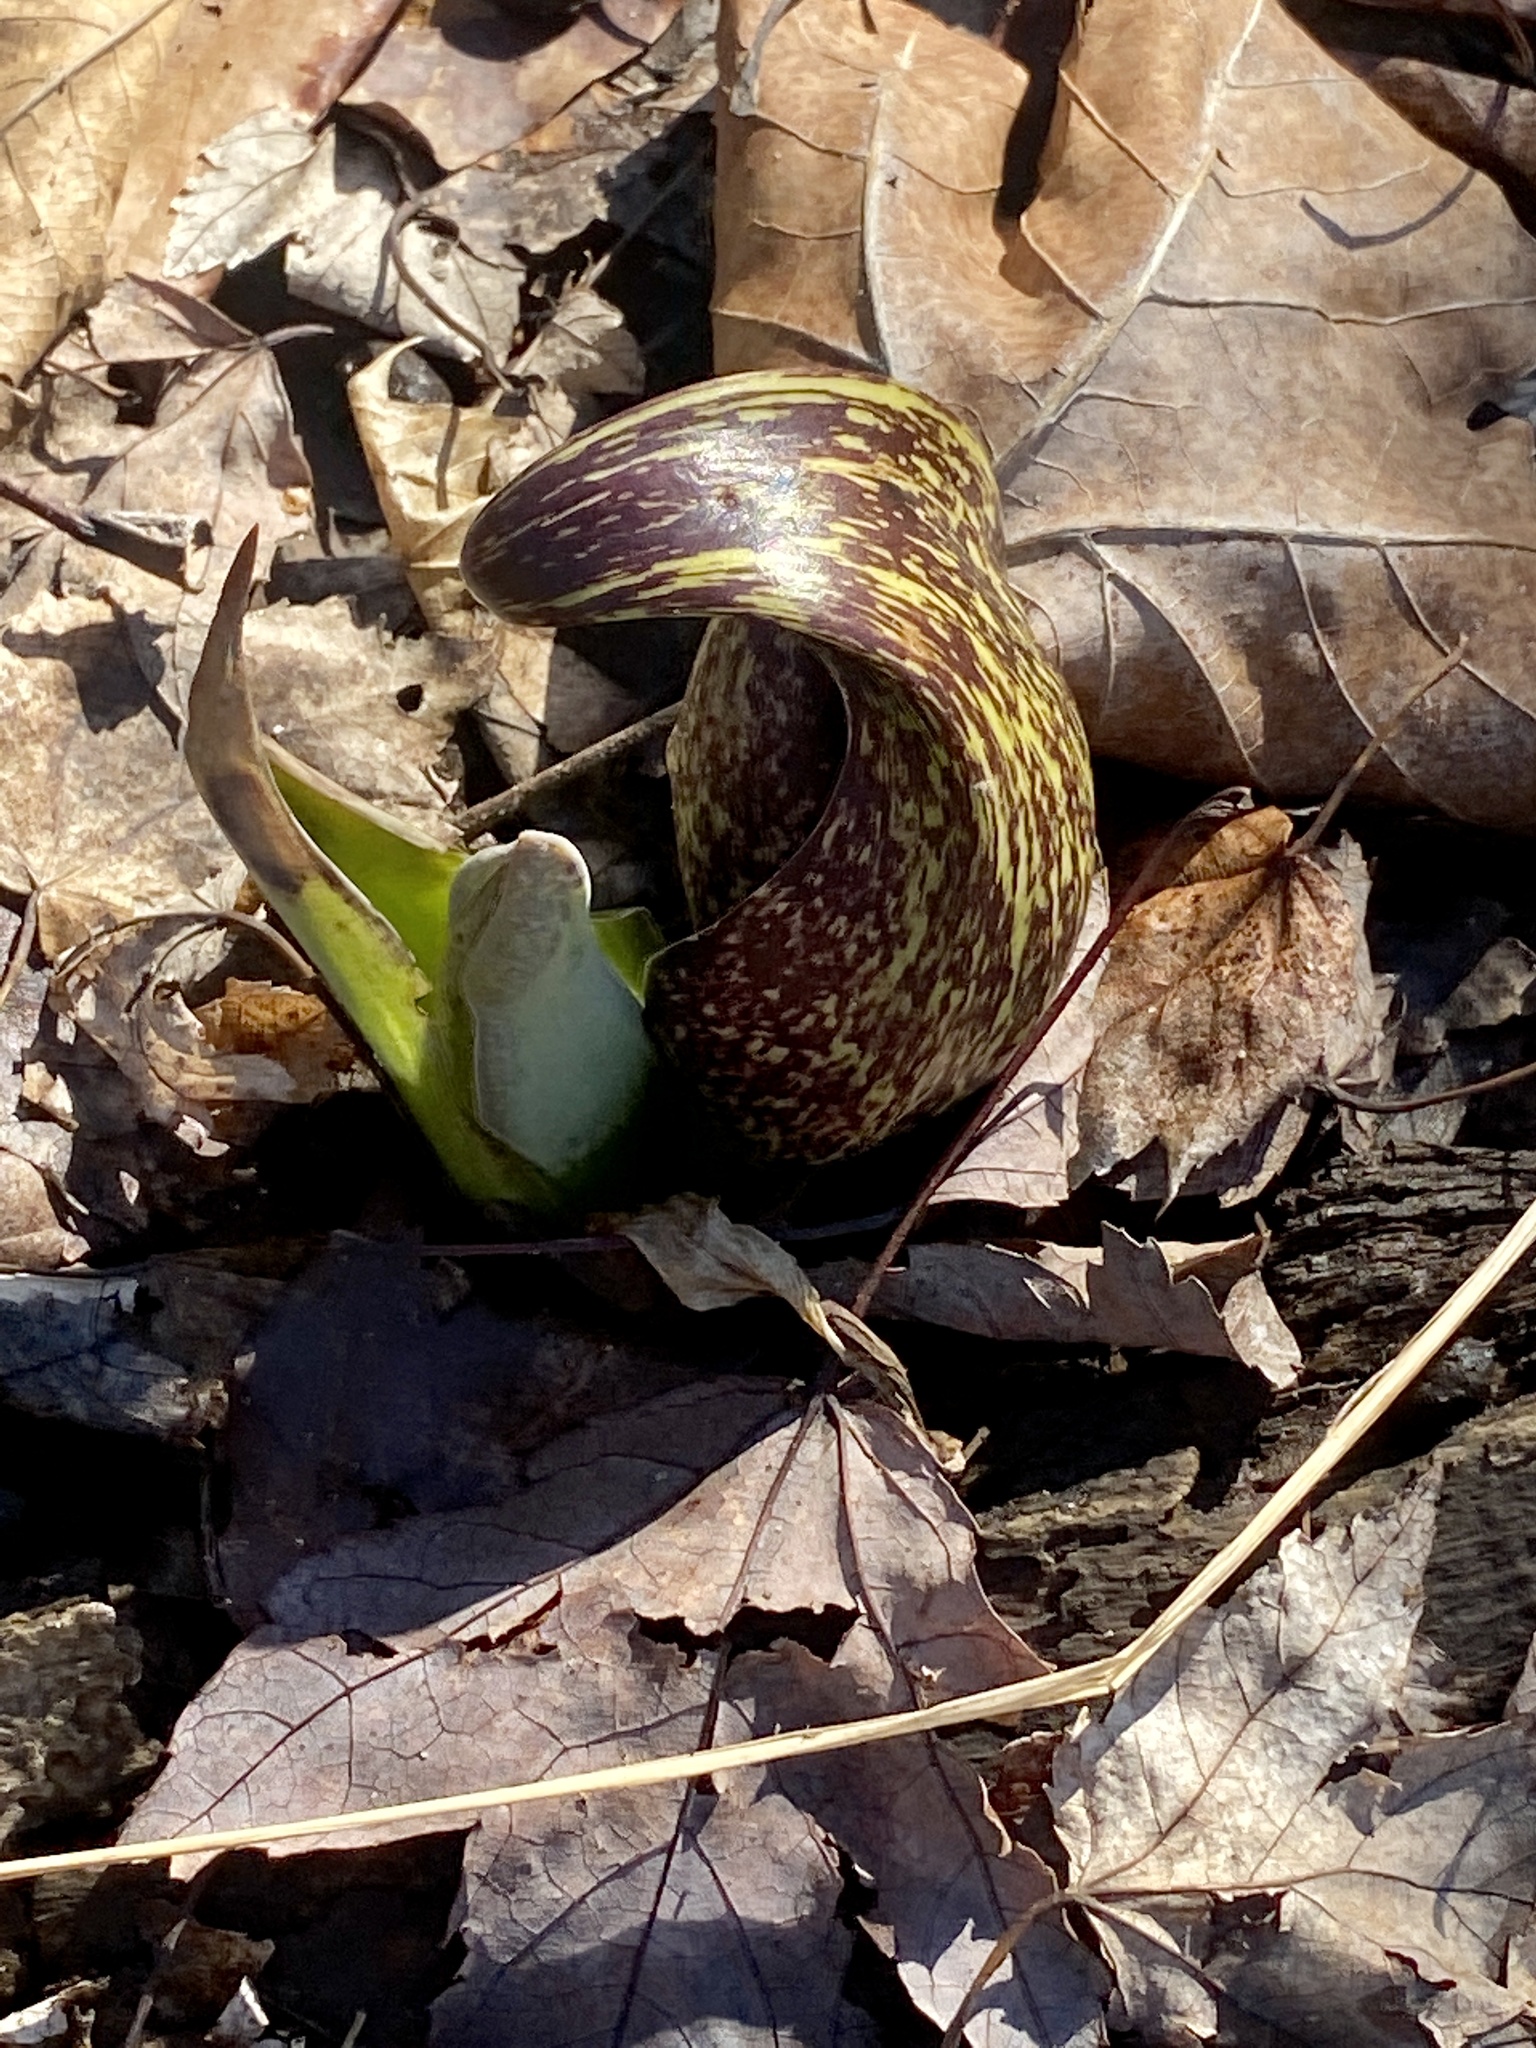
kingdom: Plantae
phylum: Tracheophyta
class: Liliopsida
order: Alismatales
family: Araceae
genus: Symplocarpus
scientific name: Symplocarpus foetidus
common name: Eastern skunk cabbage
